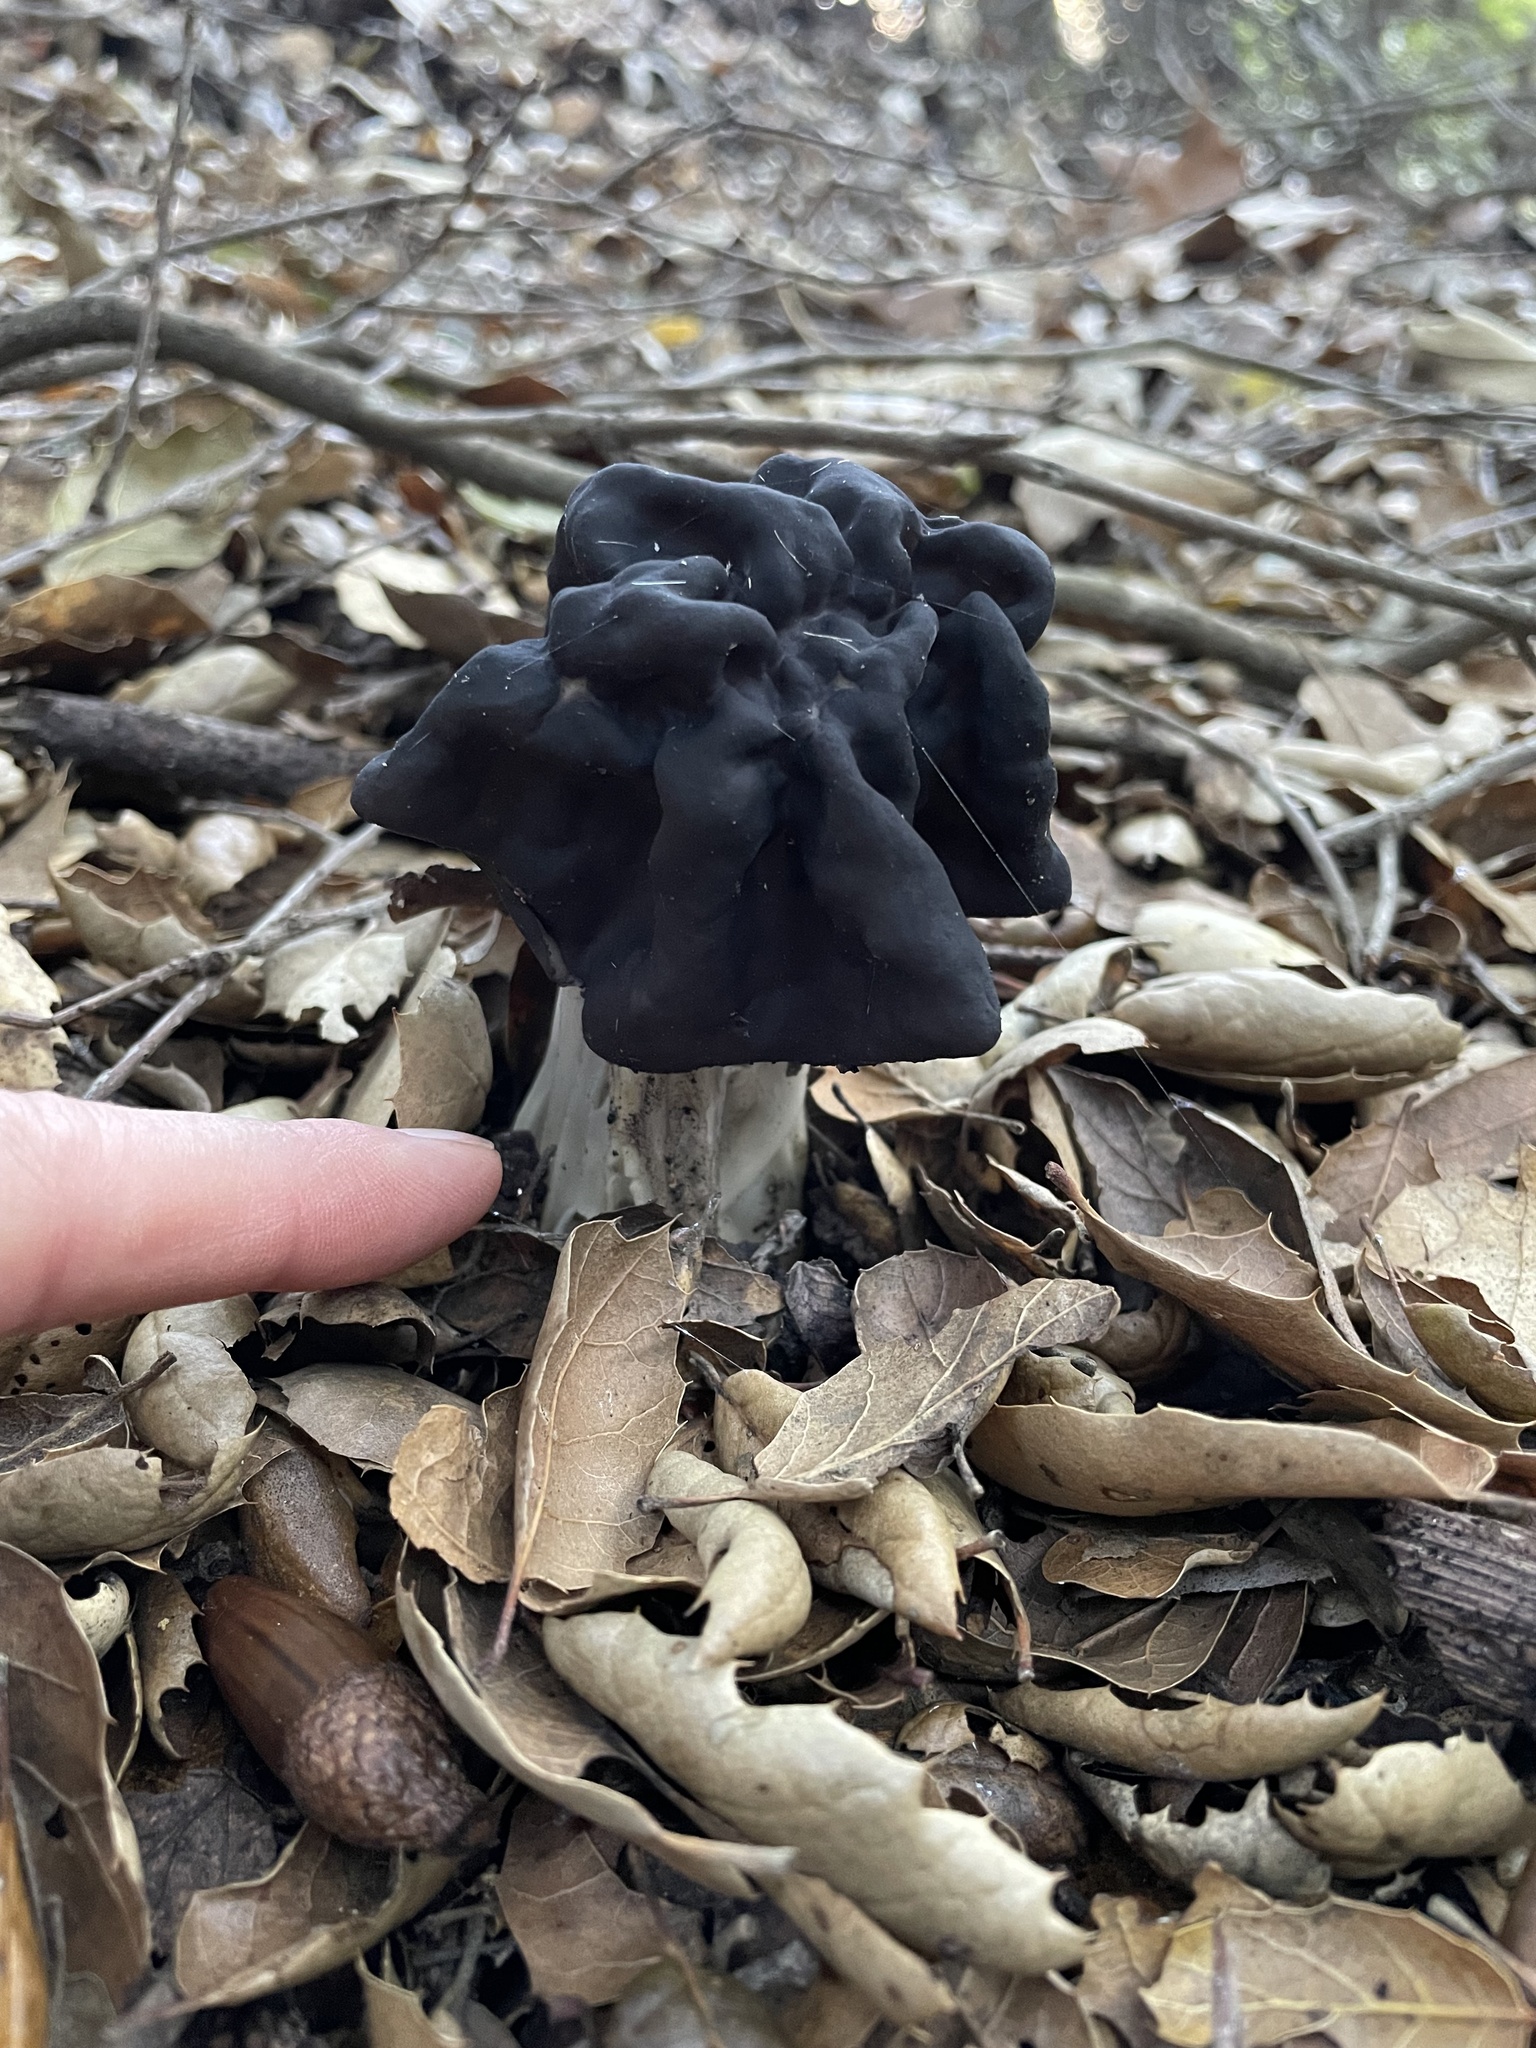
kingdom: Fungi
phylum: Ascomycota
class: Pezizomycetes
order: Pezizales
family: Helvellaceae
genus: Helvella
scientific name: Helvella dryophila
